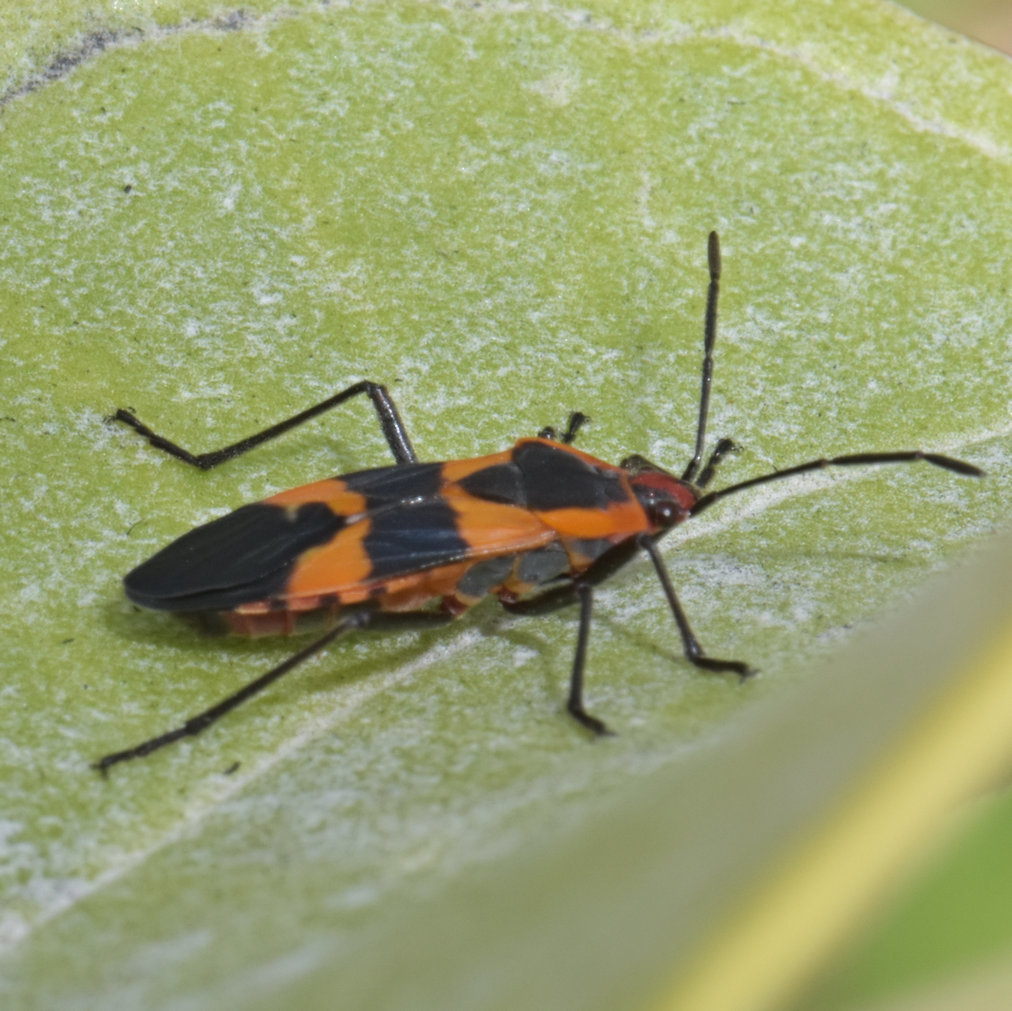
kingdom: Animalia
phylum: Arthropoda
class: Insecta
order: Hemiptera
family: Lygaeidae
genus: Oncopeltus
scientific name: Oncopeltus fasciatus
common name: Large milkweed bug
